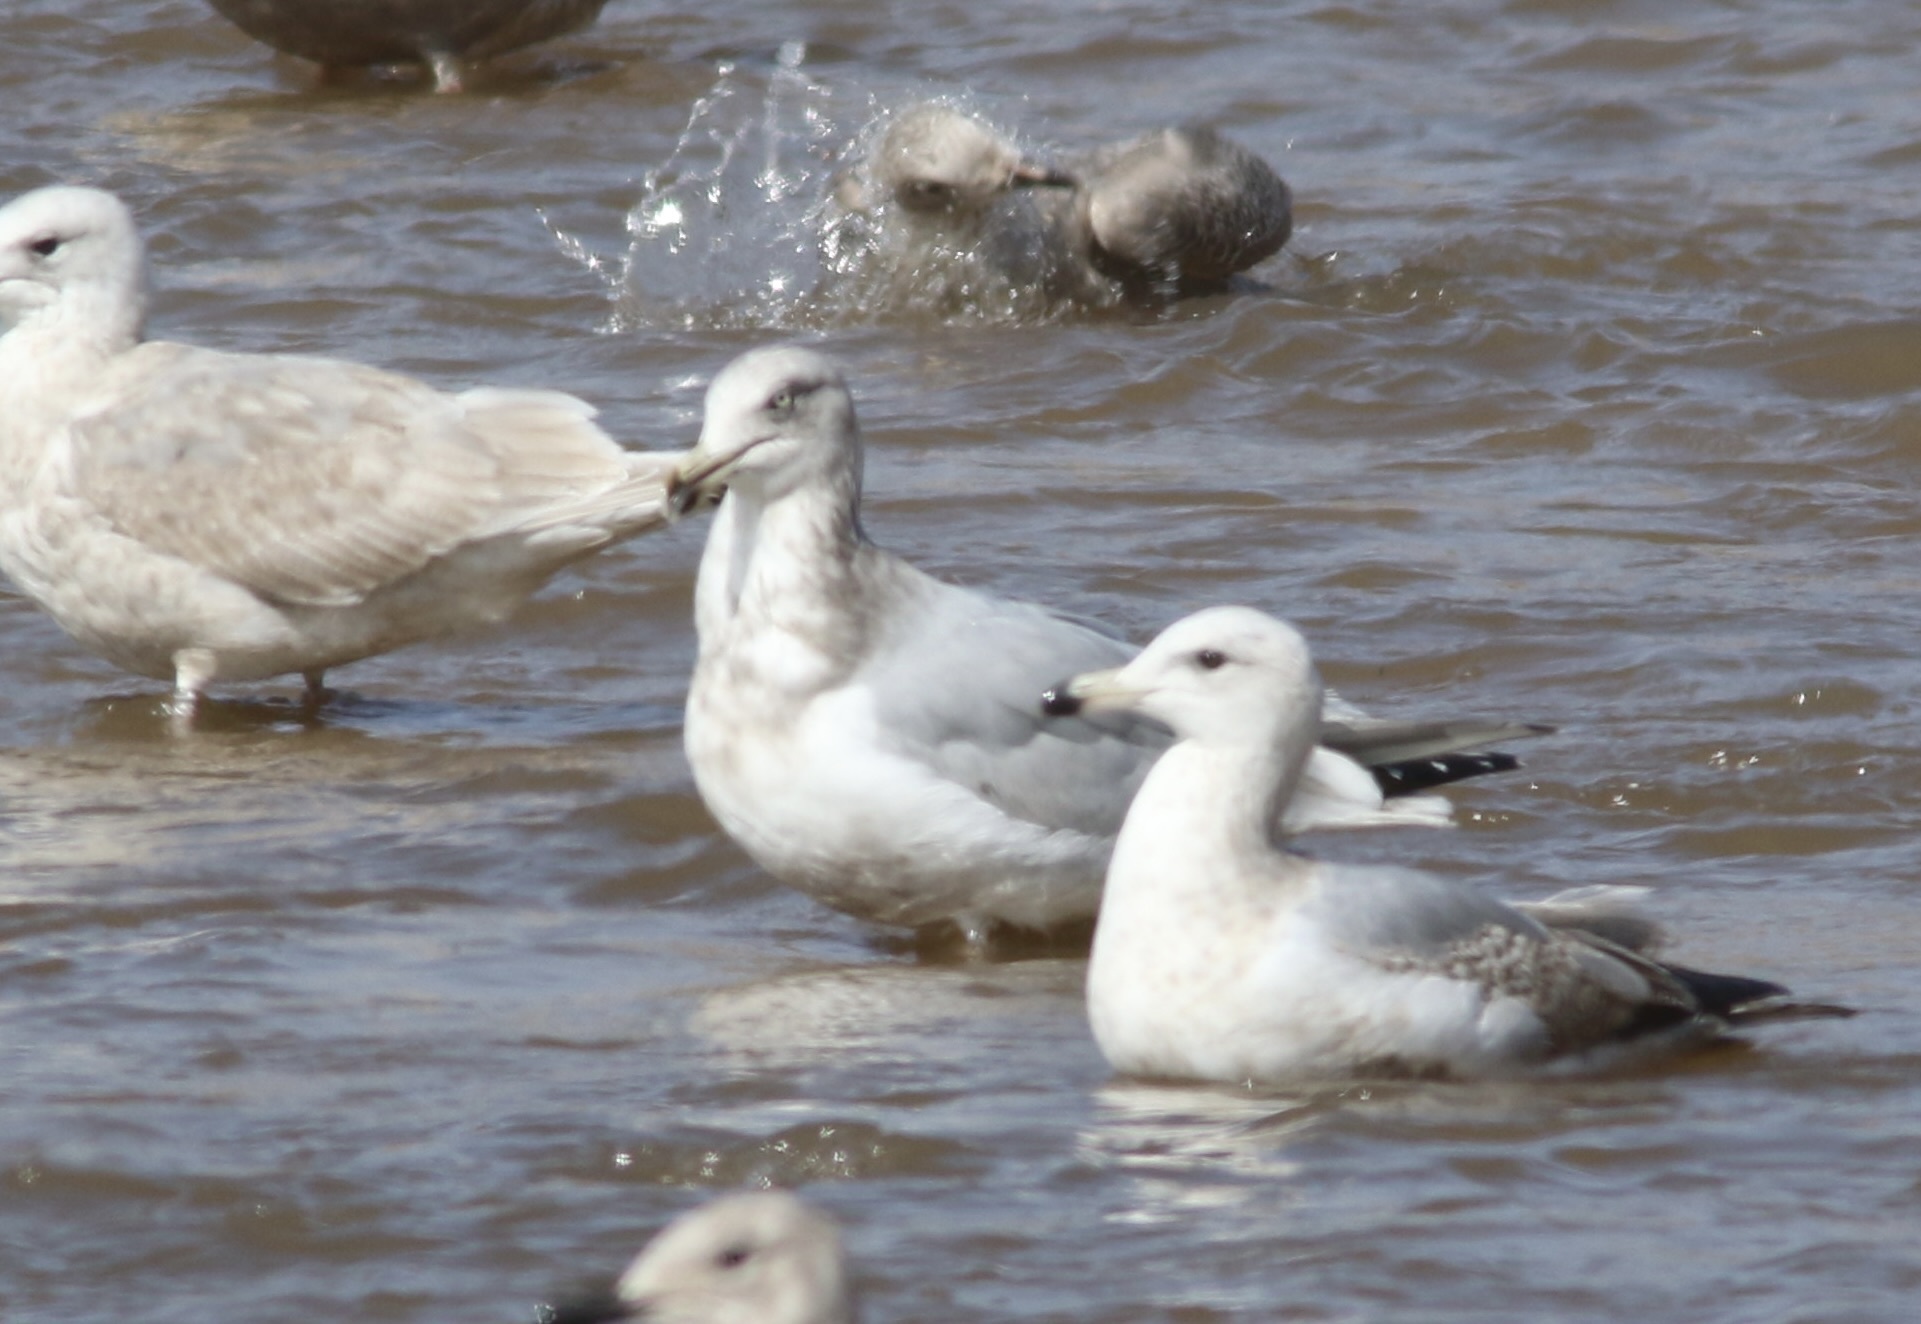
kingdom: Animalia
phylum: Chordata
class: Aves
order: Charadriiformes
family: Laridae
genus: Larus
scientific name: Larus argentatus
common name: Herring gull
